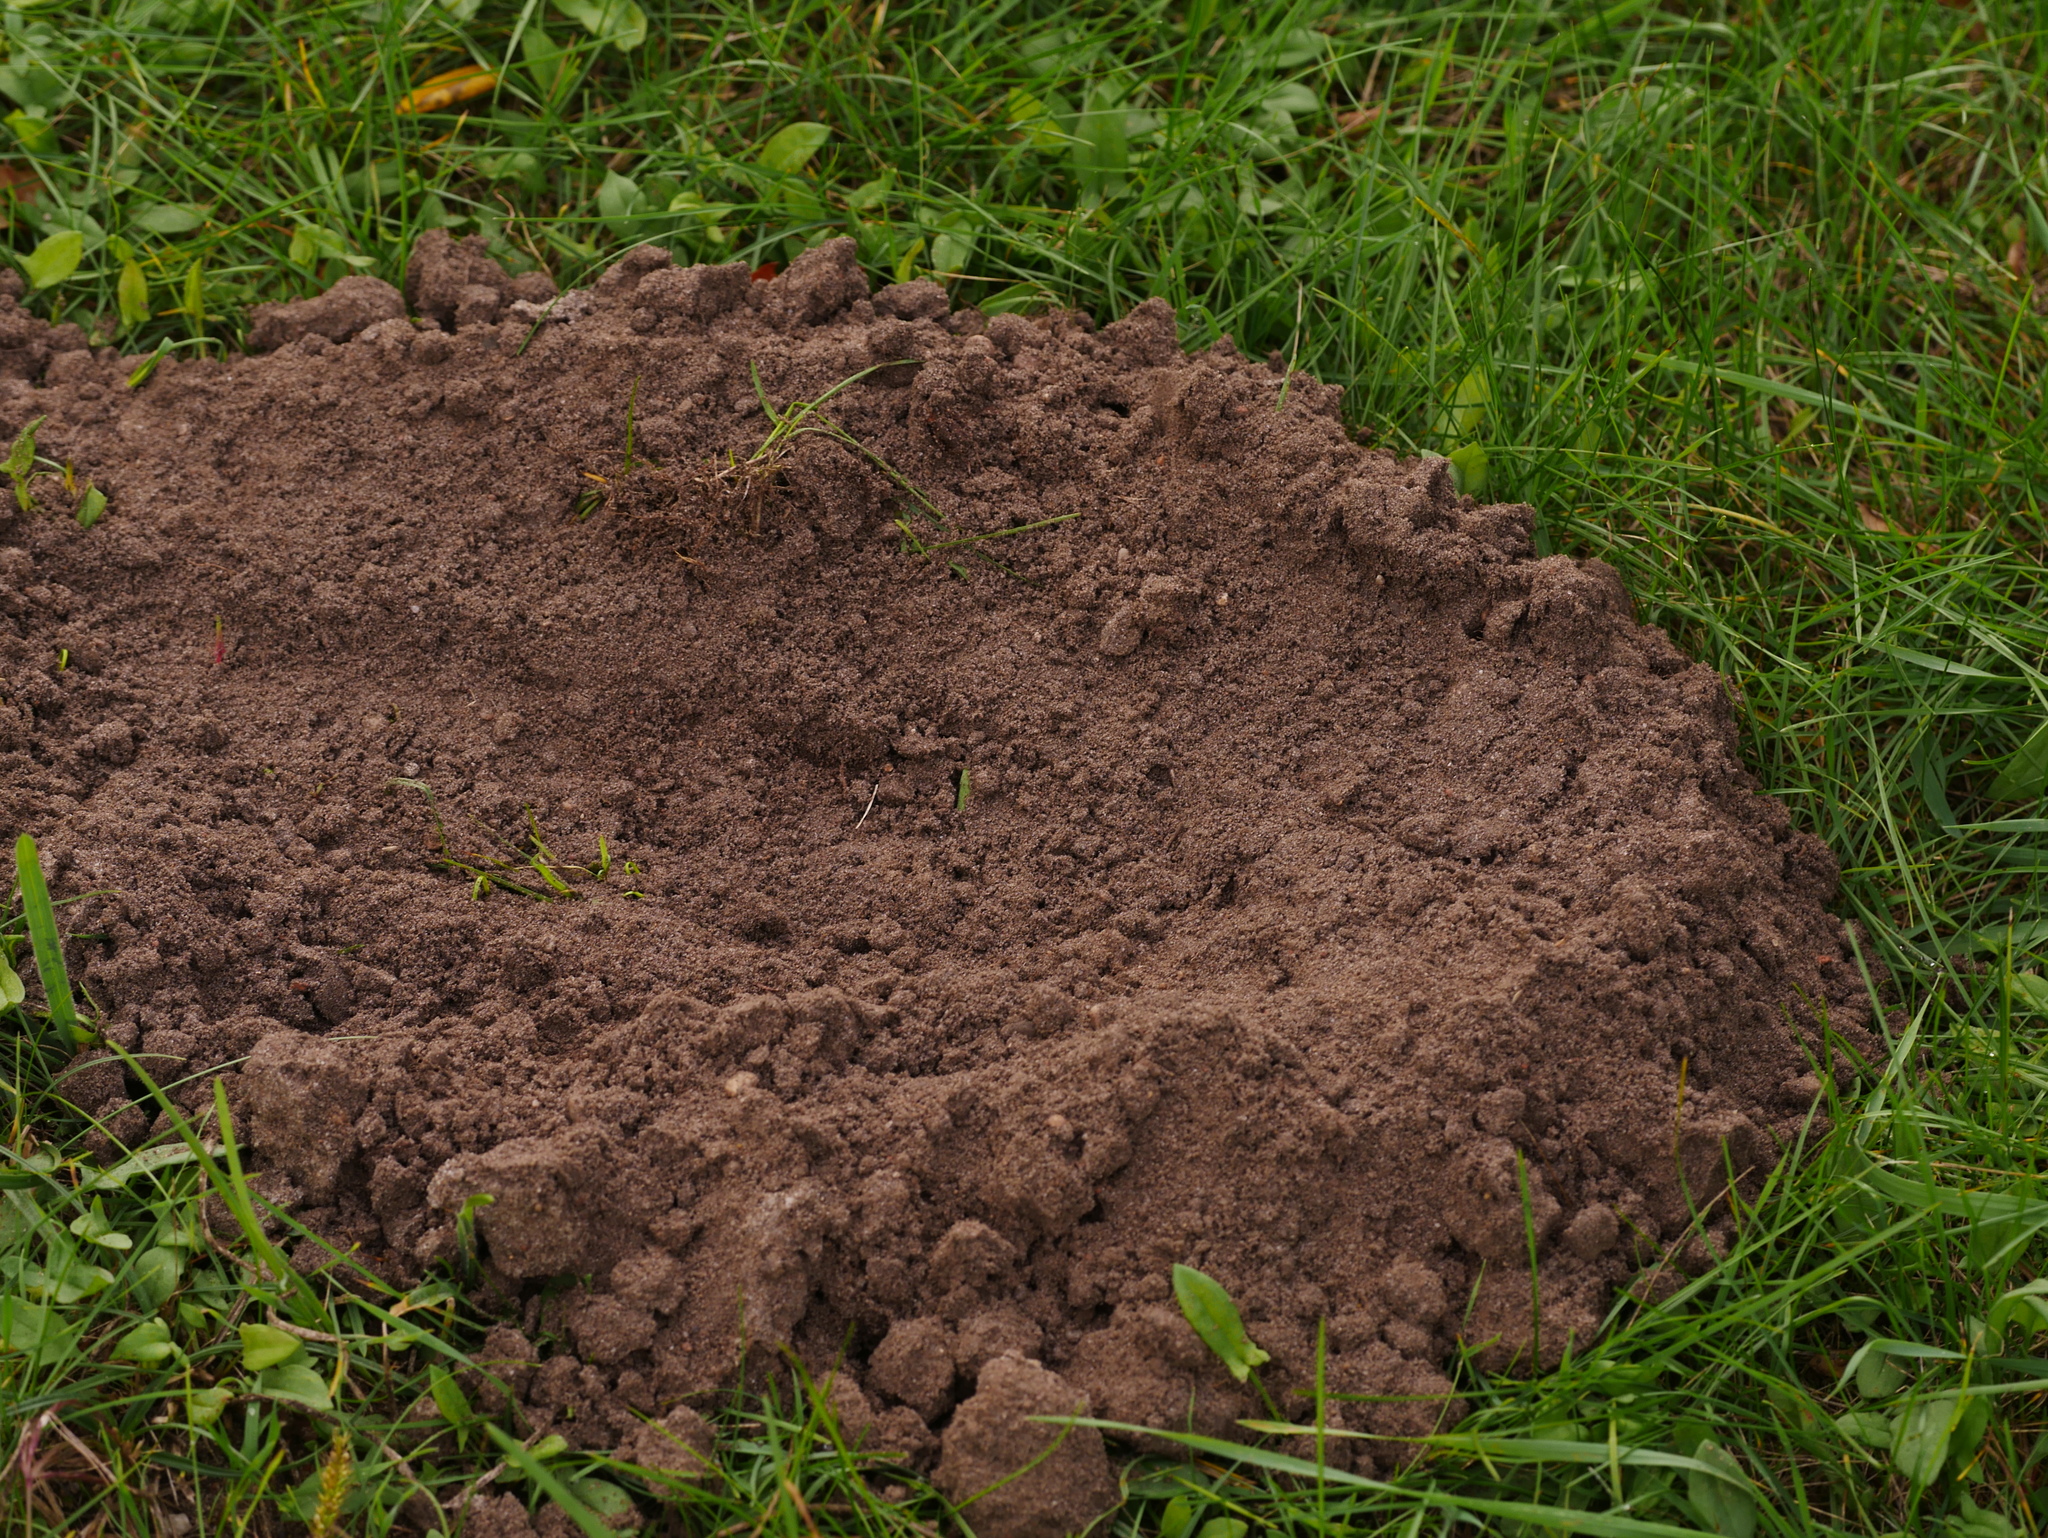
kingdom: Animalia
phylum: Chordata
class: Mammalia
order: Soricomorpha
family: Talpidae
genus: Talpa
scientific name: Talpa europaea
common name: European mole
